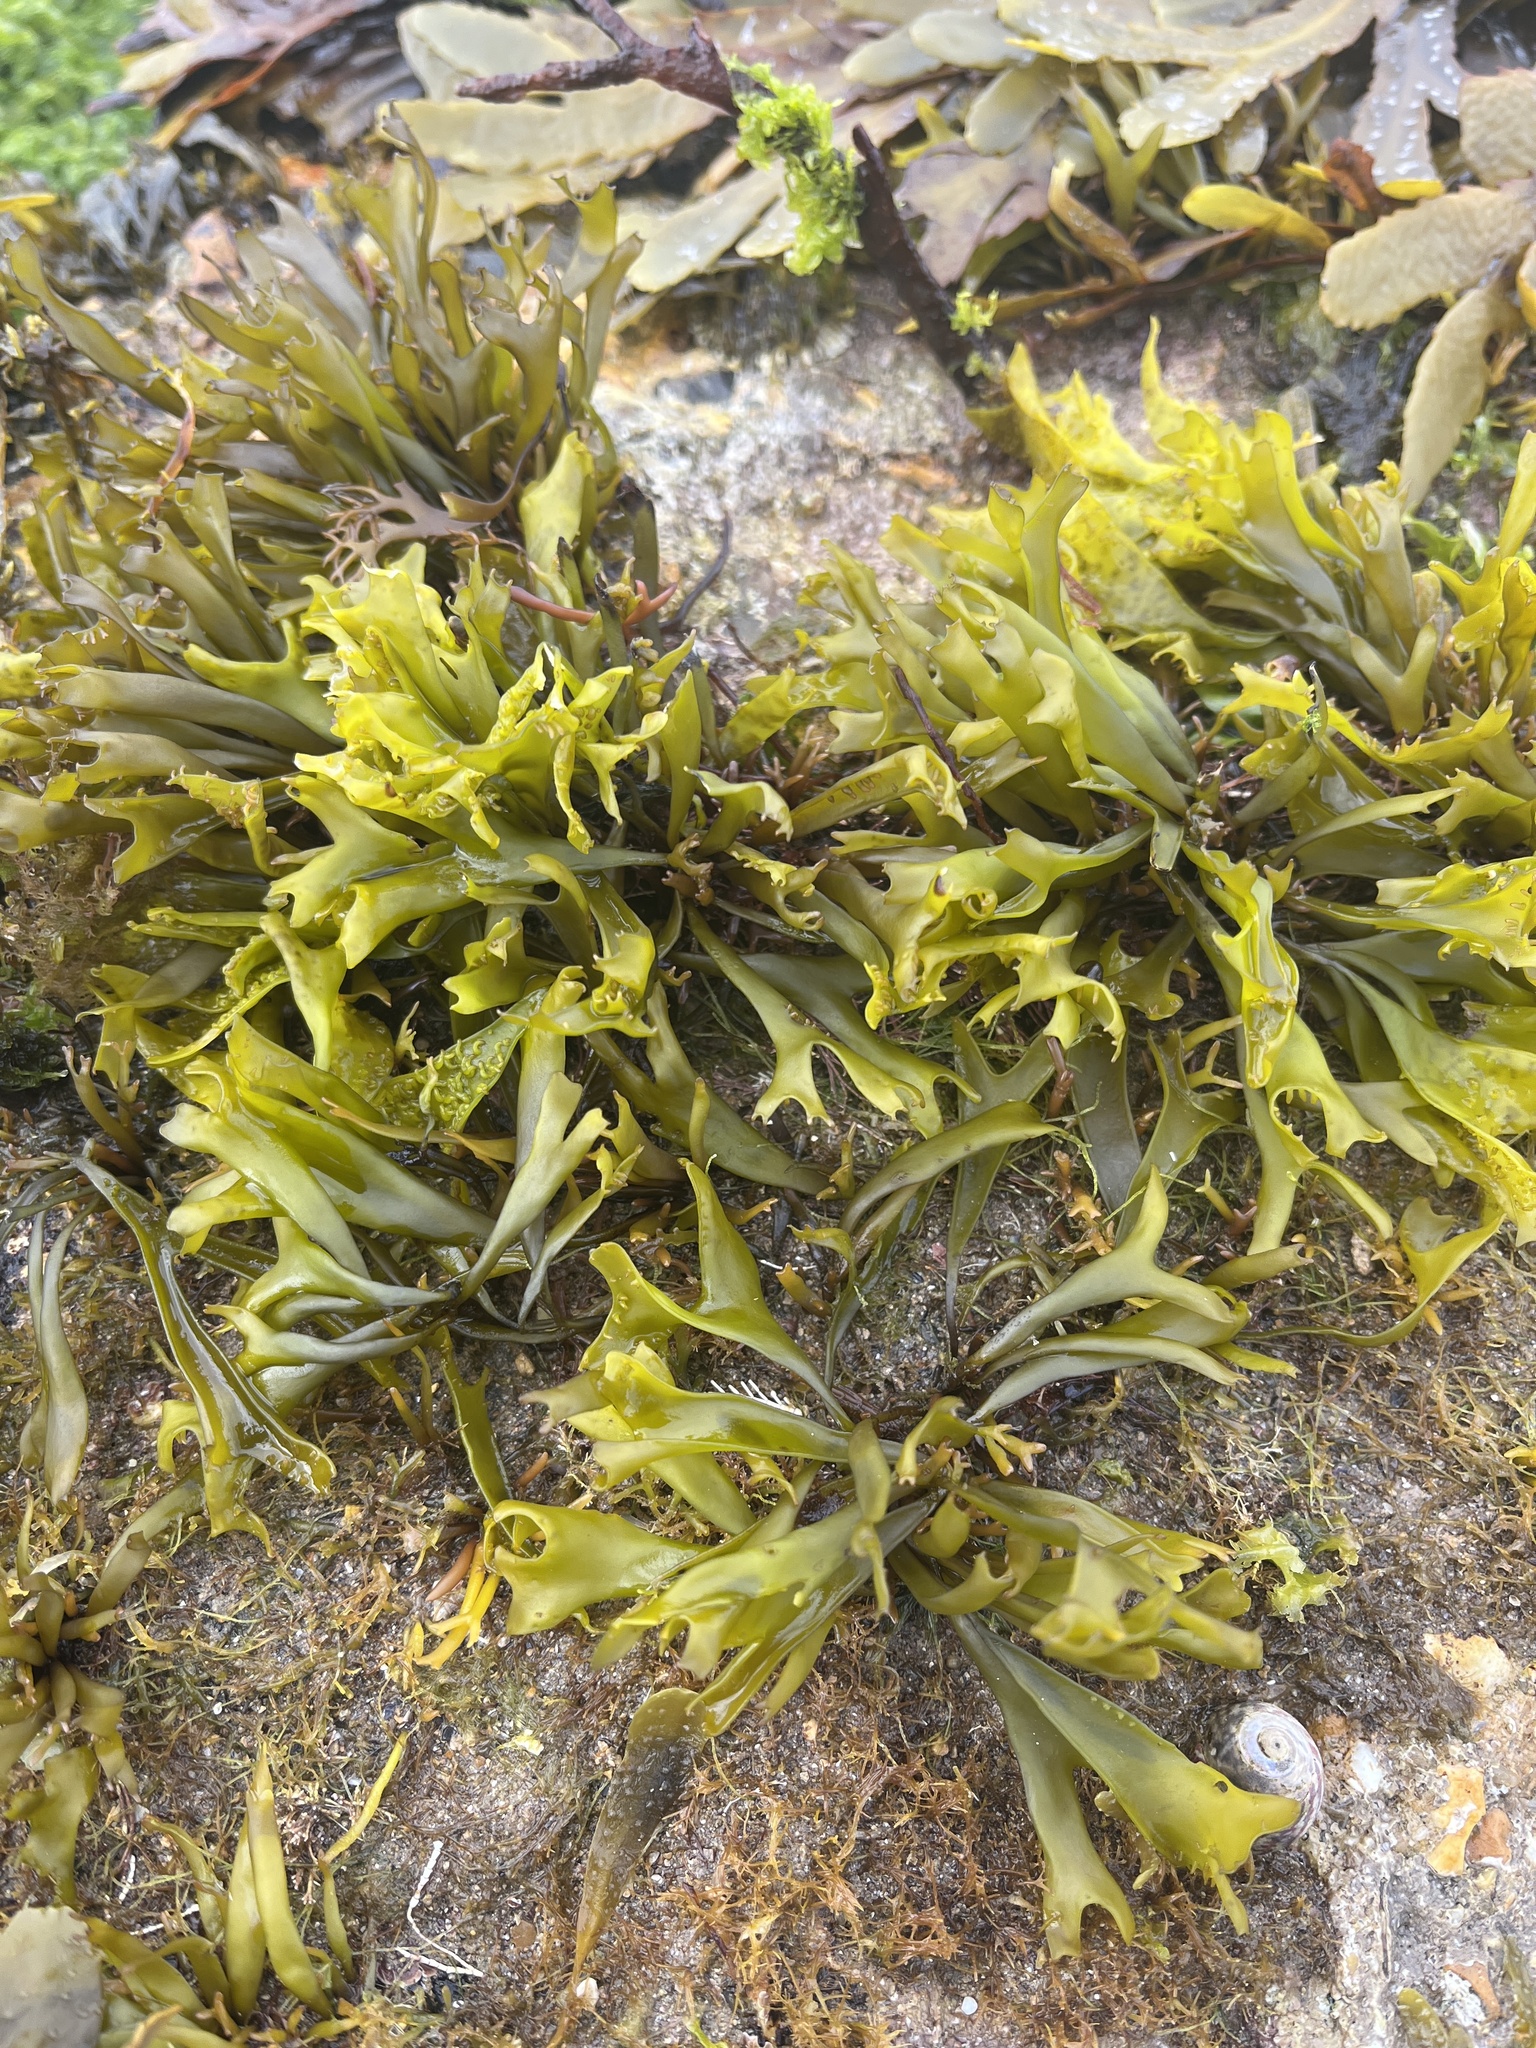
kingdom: Chromista
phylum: Ochrophyta
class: Phaeophyceae
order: Fucales
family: Fucaceae
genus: Pelvetia
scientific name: Pelvetia canaliculata
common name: Channelled wrack
